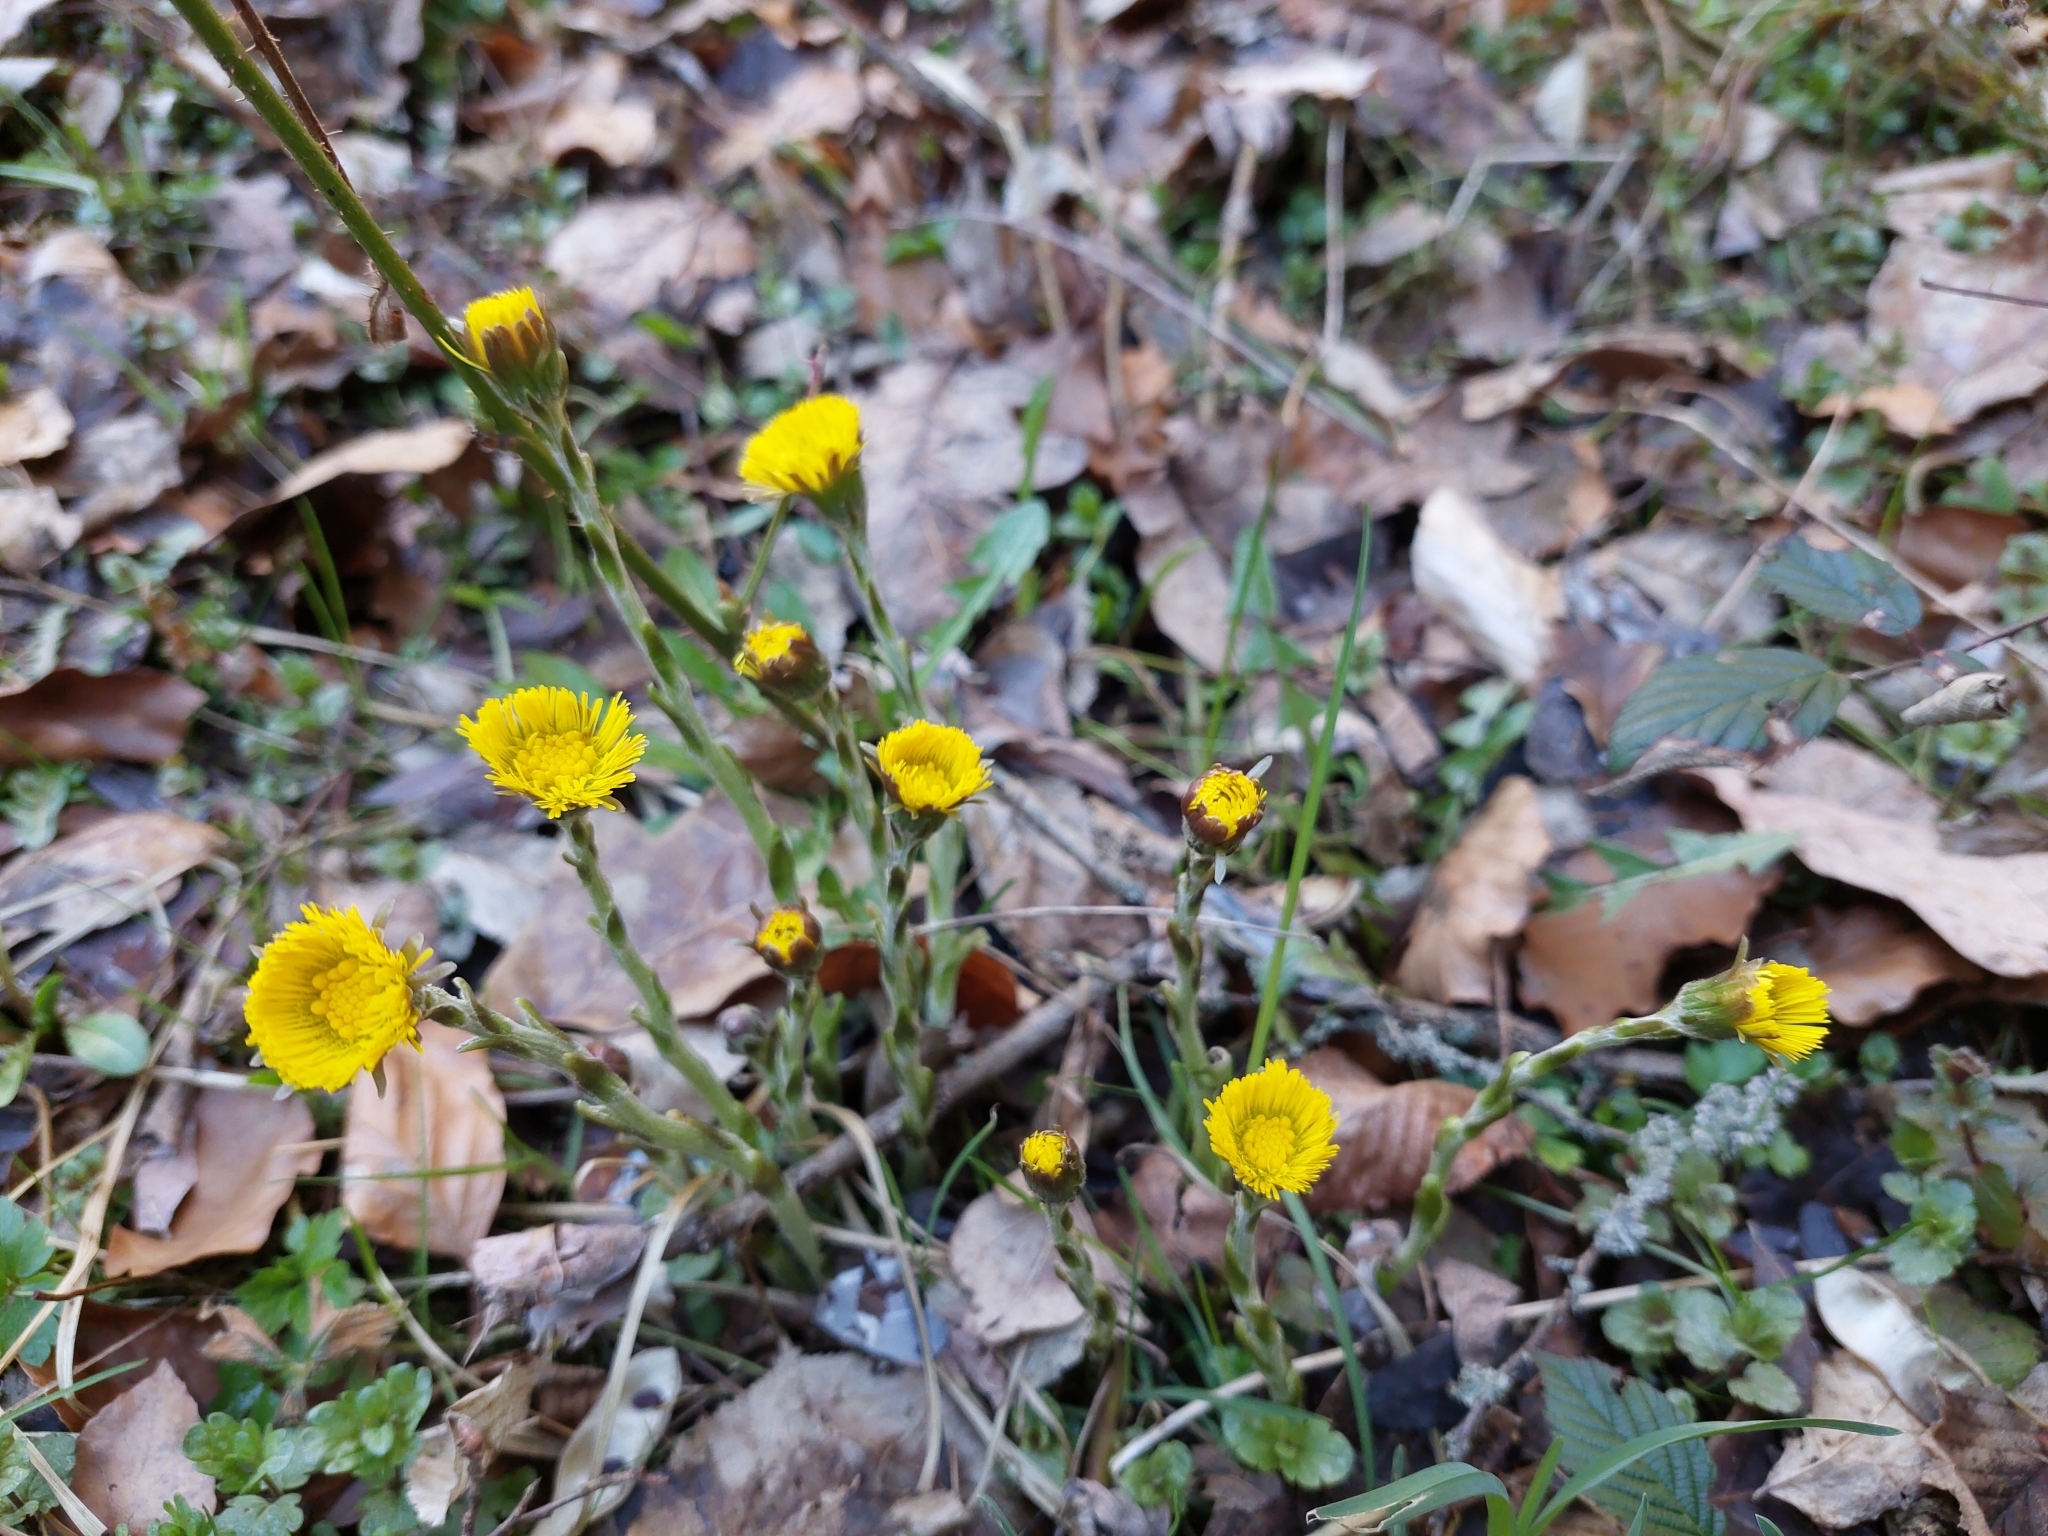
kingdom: Plantae
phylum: Tracheophyta
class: Magnoliopsida
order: Asterales
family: Asteraceae
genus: Tussilago
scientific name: Tussilago farfara
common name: Coltsfoot
